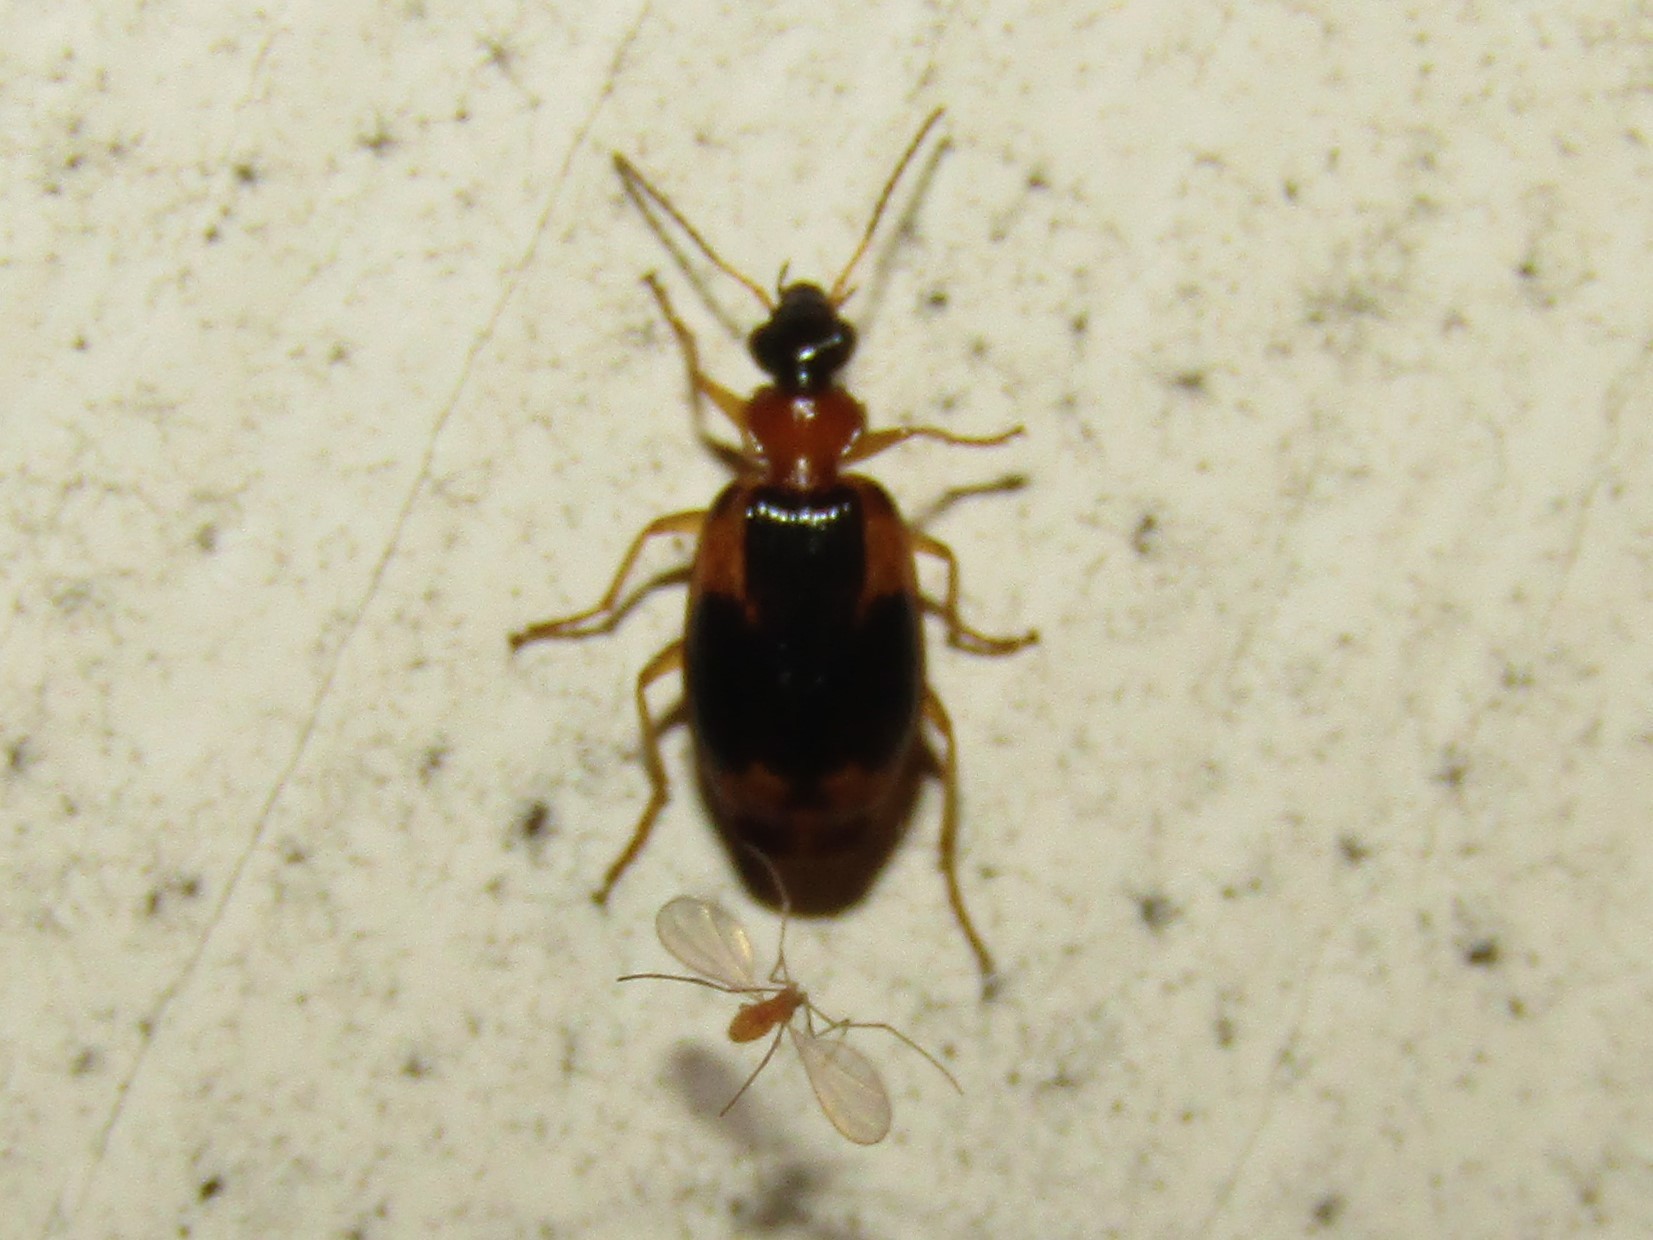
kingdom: Animalia
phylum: Arthropoda
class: Insecta
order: Coleoptera
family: Carabidae
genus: Lebia
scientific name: Lebia analis
